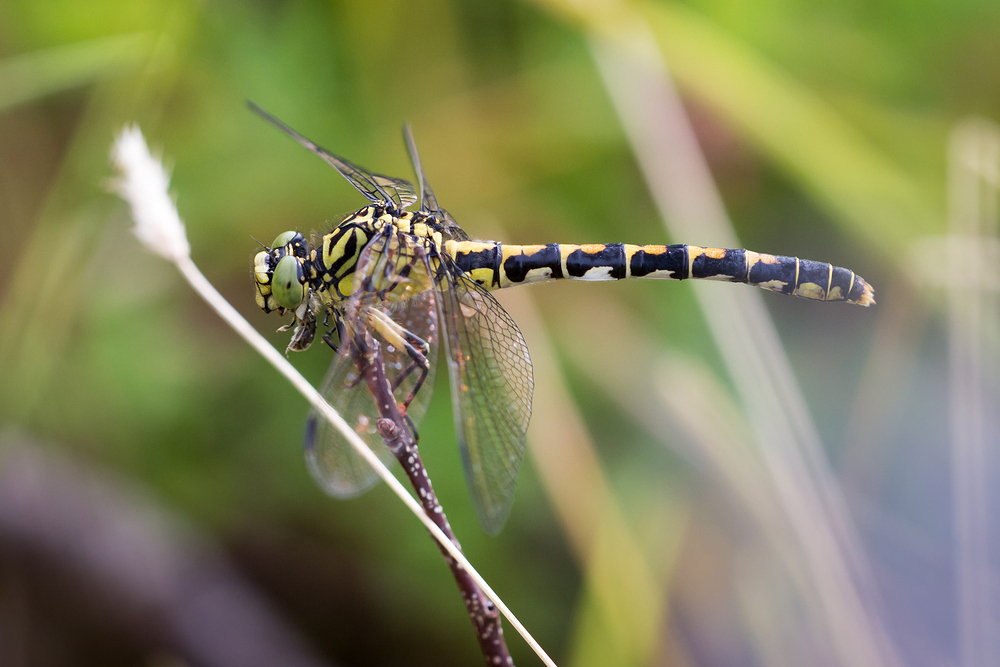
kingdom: Animalia
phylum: Arthropoda
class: Insecta
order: Odonata
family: Gomphidae
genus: Onychogomphus
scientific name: Onychogomphus forcipatus
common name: Small pincertail
